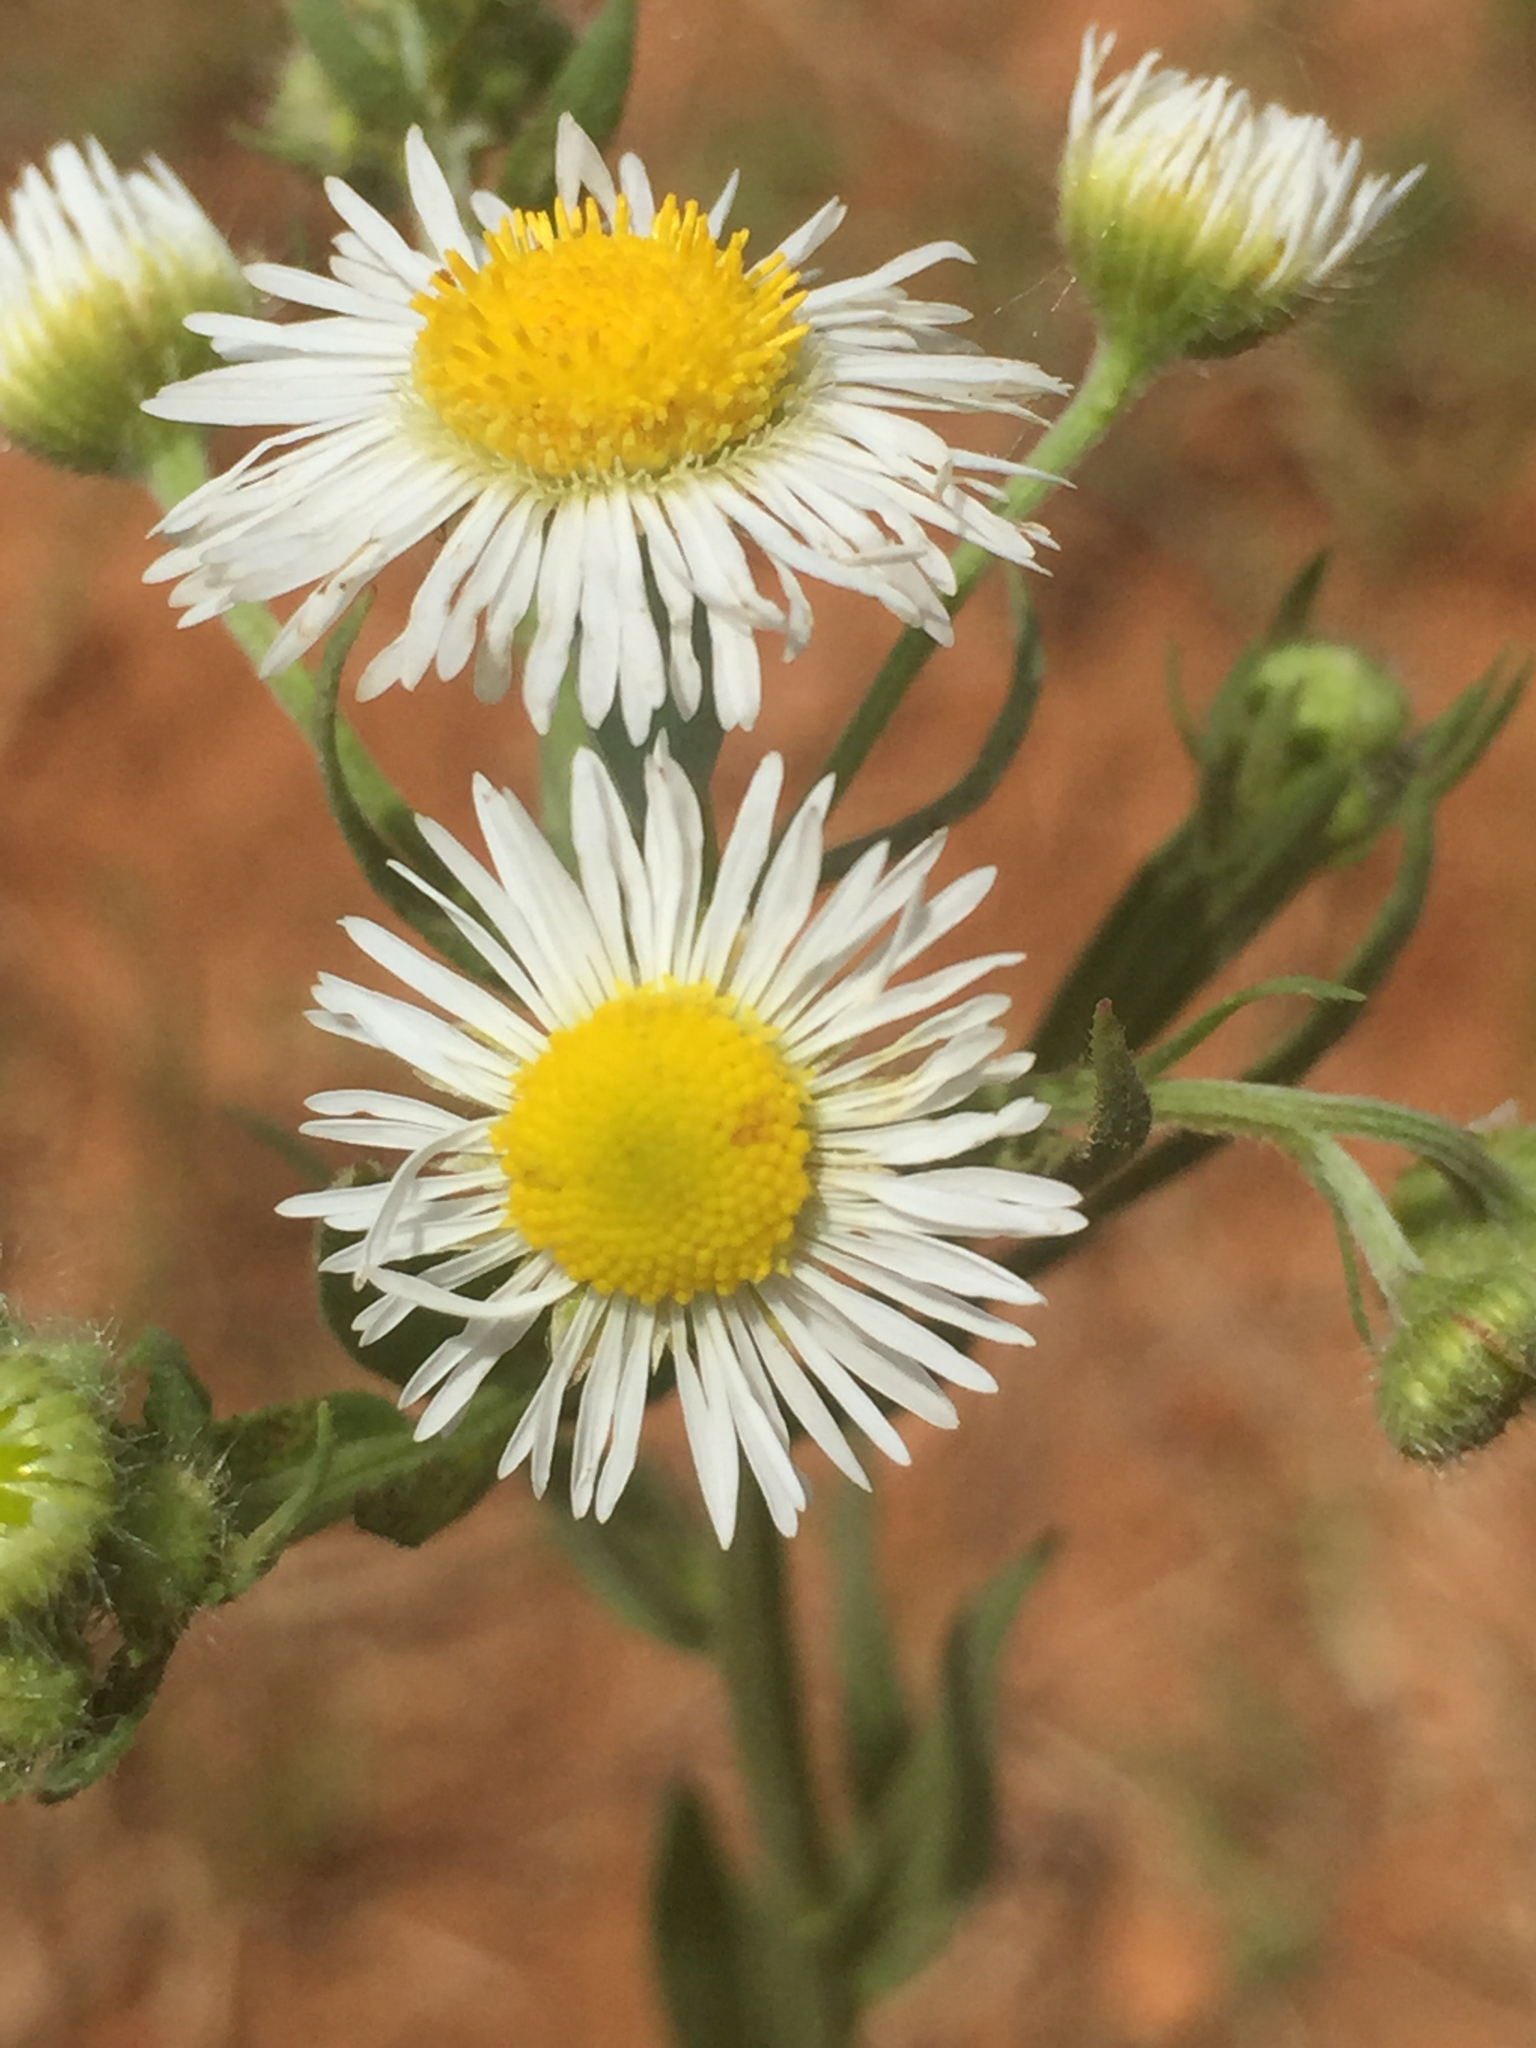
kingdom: Plantae
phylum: Tracheophyta
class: Magnoliopsida
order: Asterales
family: Asteraceae
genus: Erigeron
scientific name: Erigeron strigosus
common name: Common eastern fleabane
